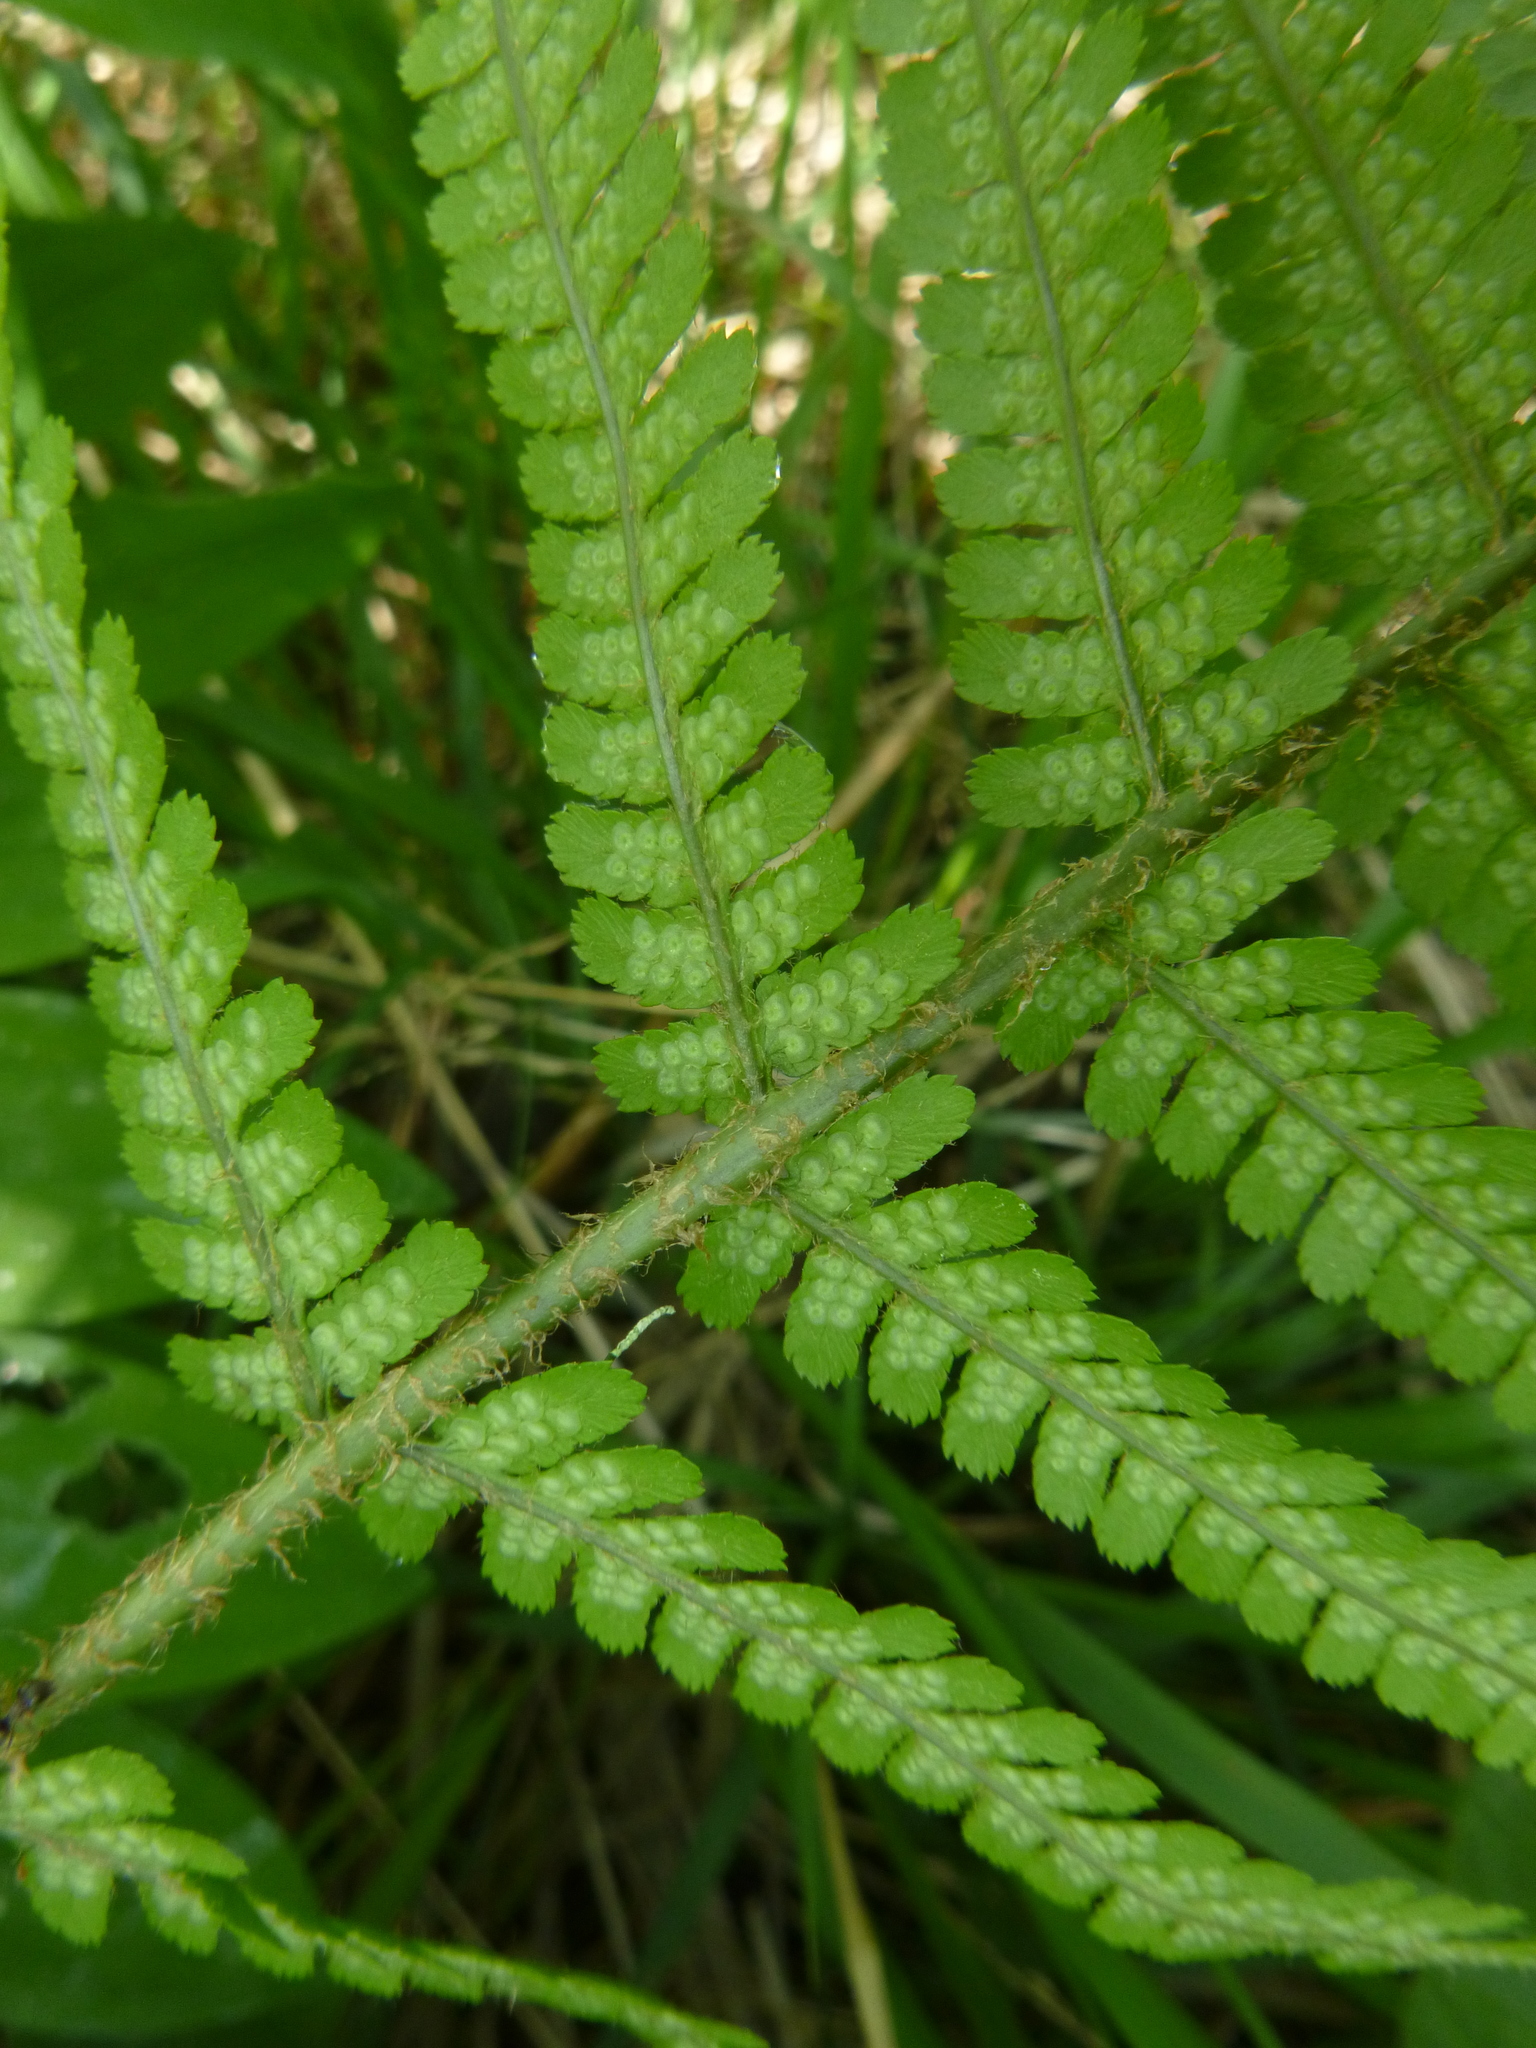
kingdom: Plantae
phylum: Tracheophyta
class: Polypodiopsida
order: Polypodiales
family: Dryopteridaceae
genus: Dryopteris
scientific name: Dryopteris filix-mas
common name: Male fern
